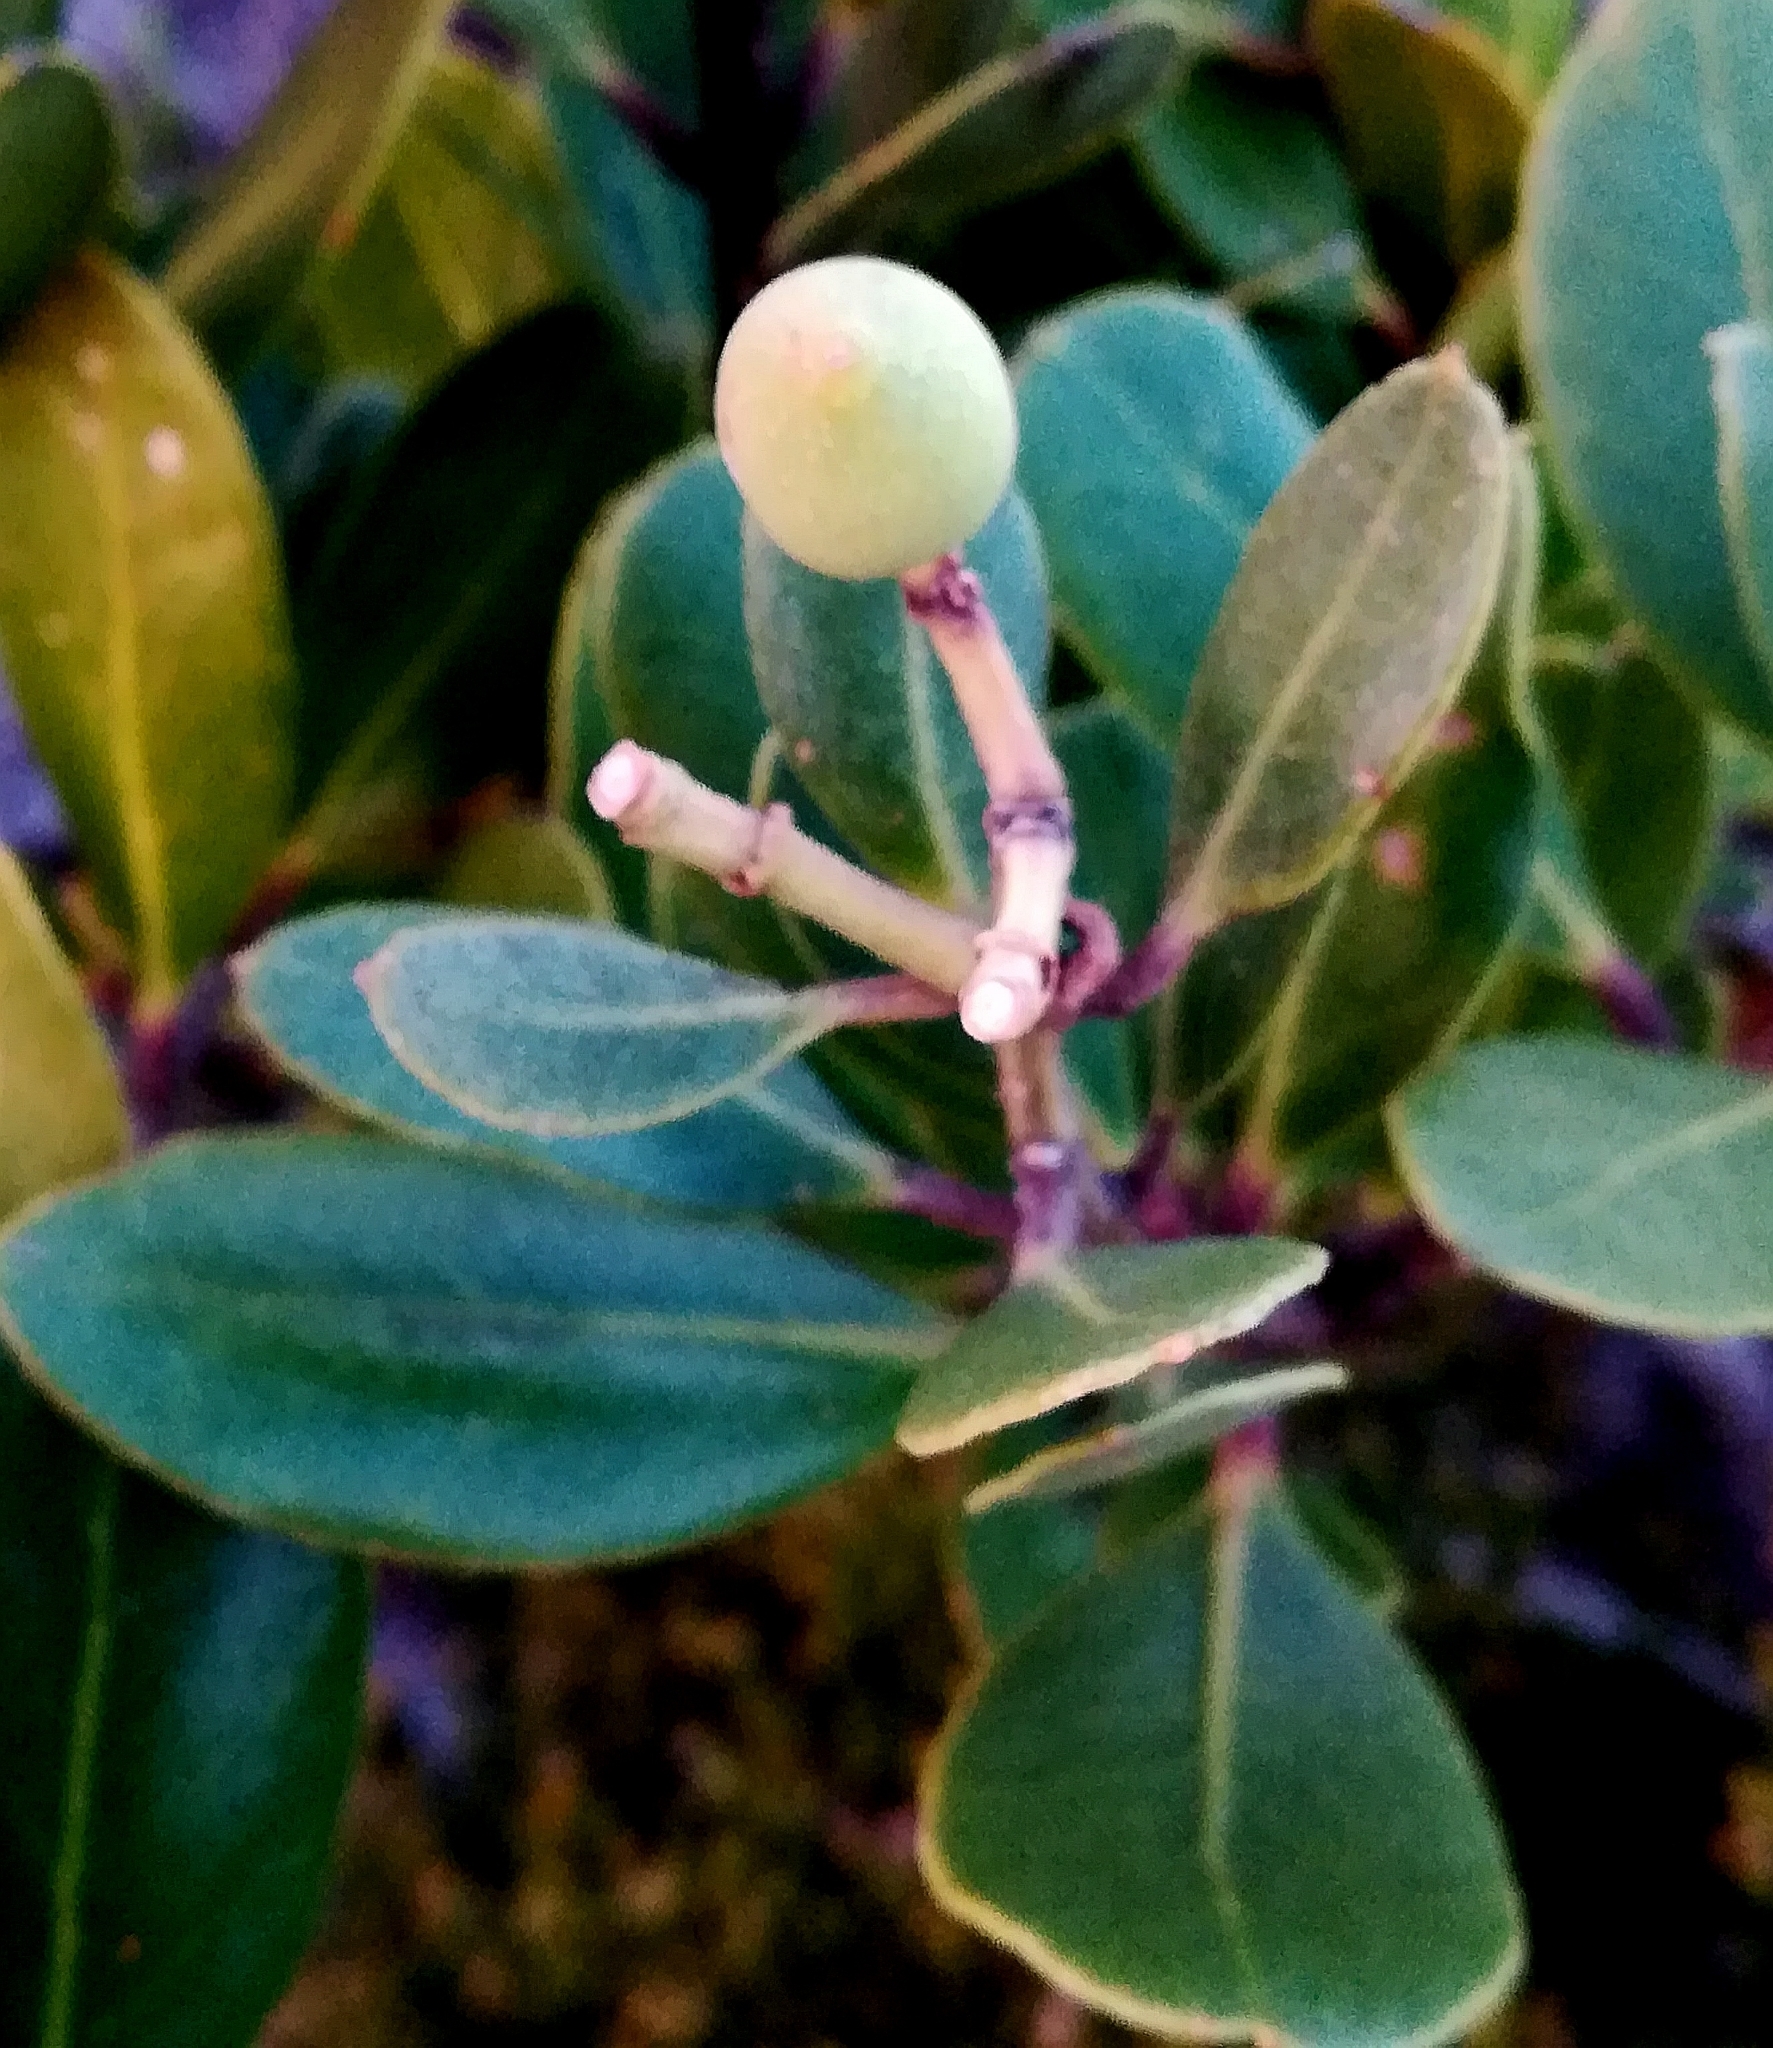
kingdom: Plantae
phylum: Tracheophyta
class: Magnoliopsida
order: Lamiales
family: Oleaceae
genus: Olea
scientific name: Olea capensis
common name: Black ironwood
